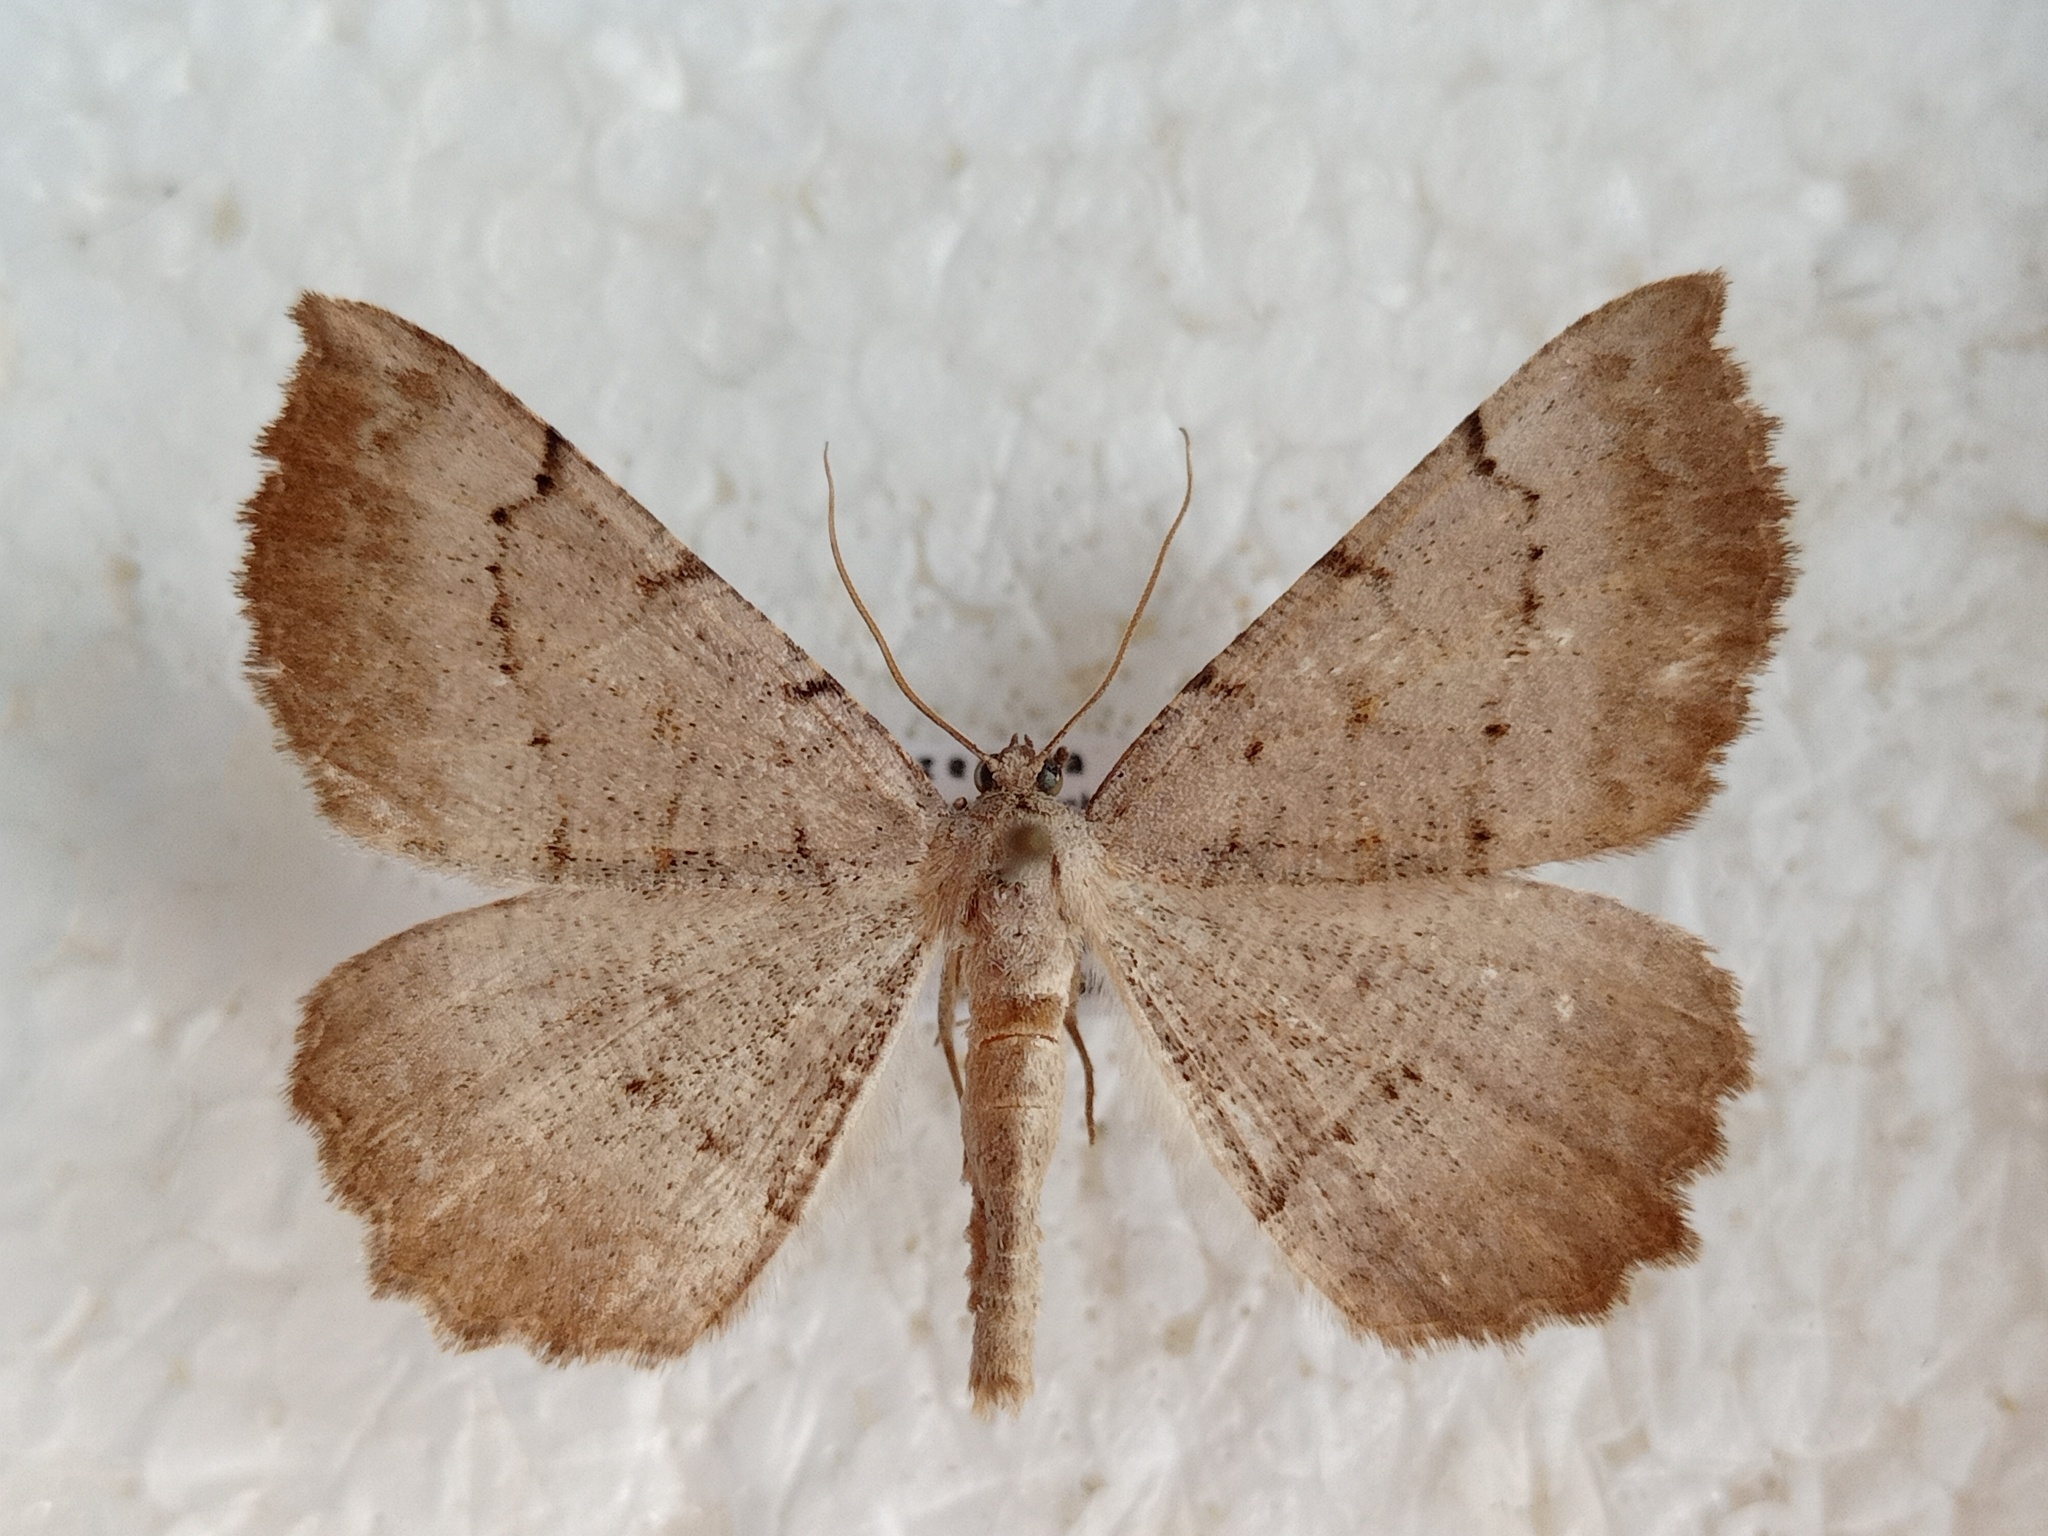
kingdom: Animalia
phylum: Arthropoda
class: Insecta
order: Lepidoptera
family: Geometridae
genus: Odontognophos
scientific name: Odontognophos dumetata
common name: Irish annulet
